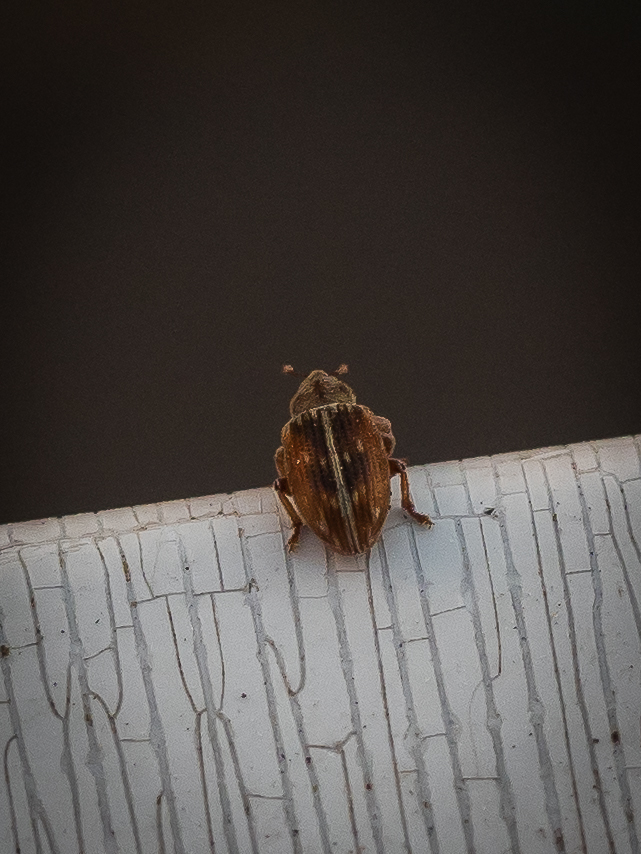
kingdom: Animalia
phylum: Arthropoda
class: Insecta
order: Coleoptera
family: Curculionidae
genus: Ellescus
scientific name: Ellescus scanicus
